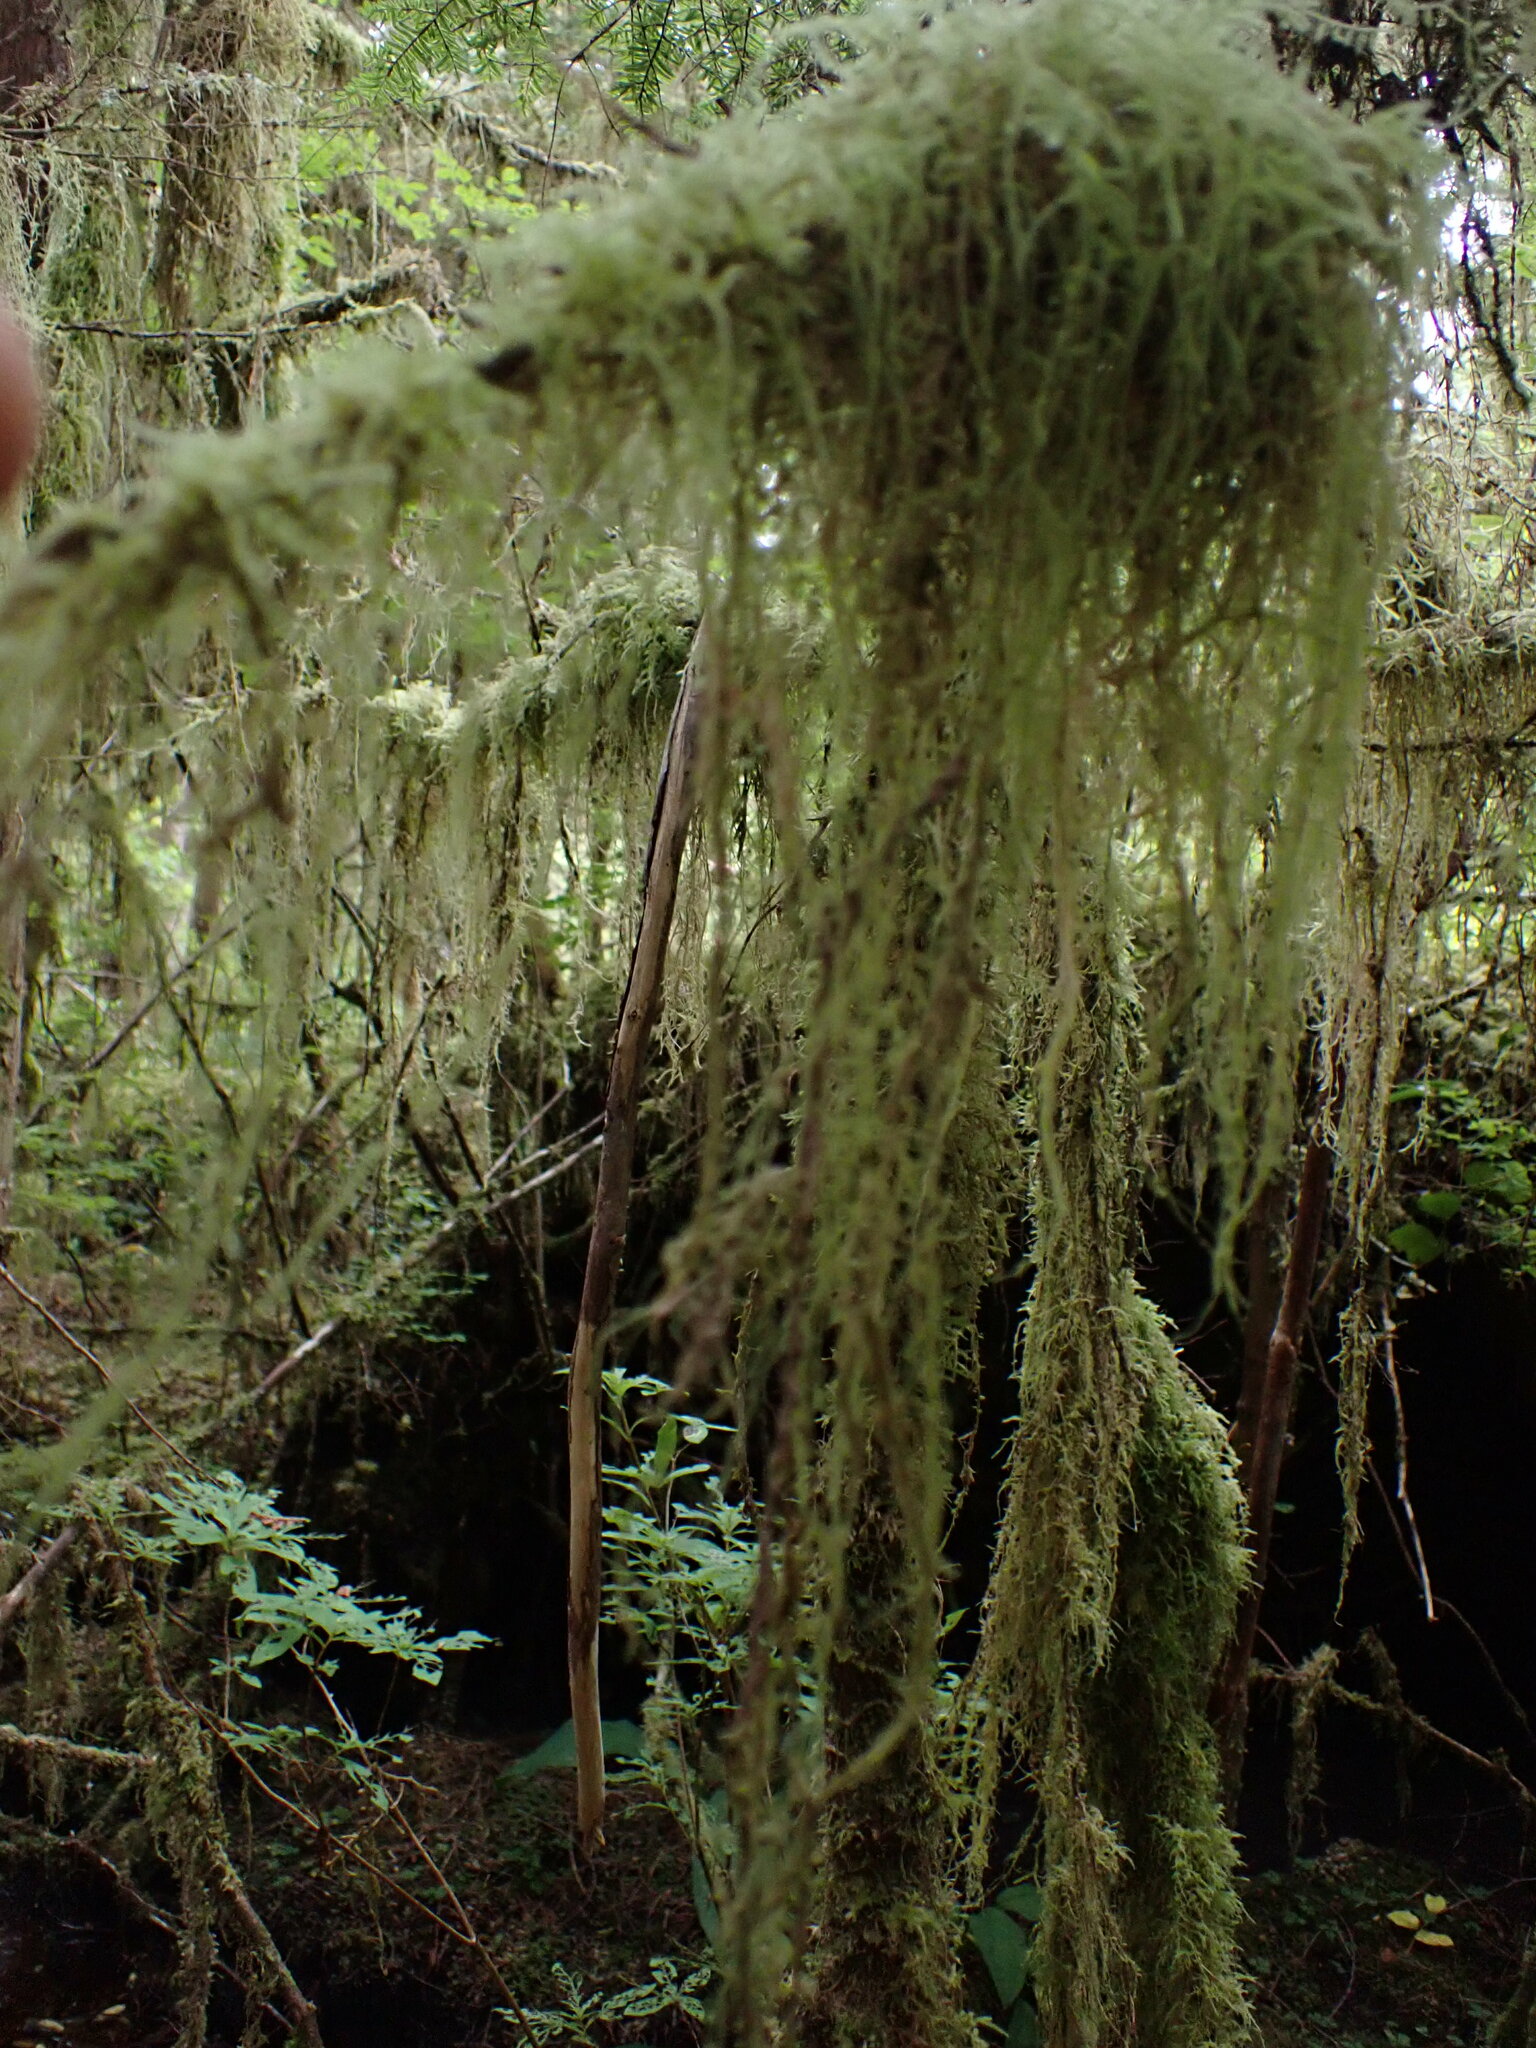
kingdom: Plantae
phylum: Bryophyta
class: Bryopsida
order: Hypnales
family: Lembophyllaceae
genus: Pseudisothecium
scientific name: Pseudisothecium stoloniferum
